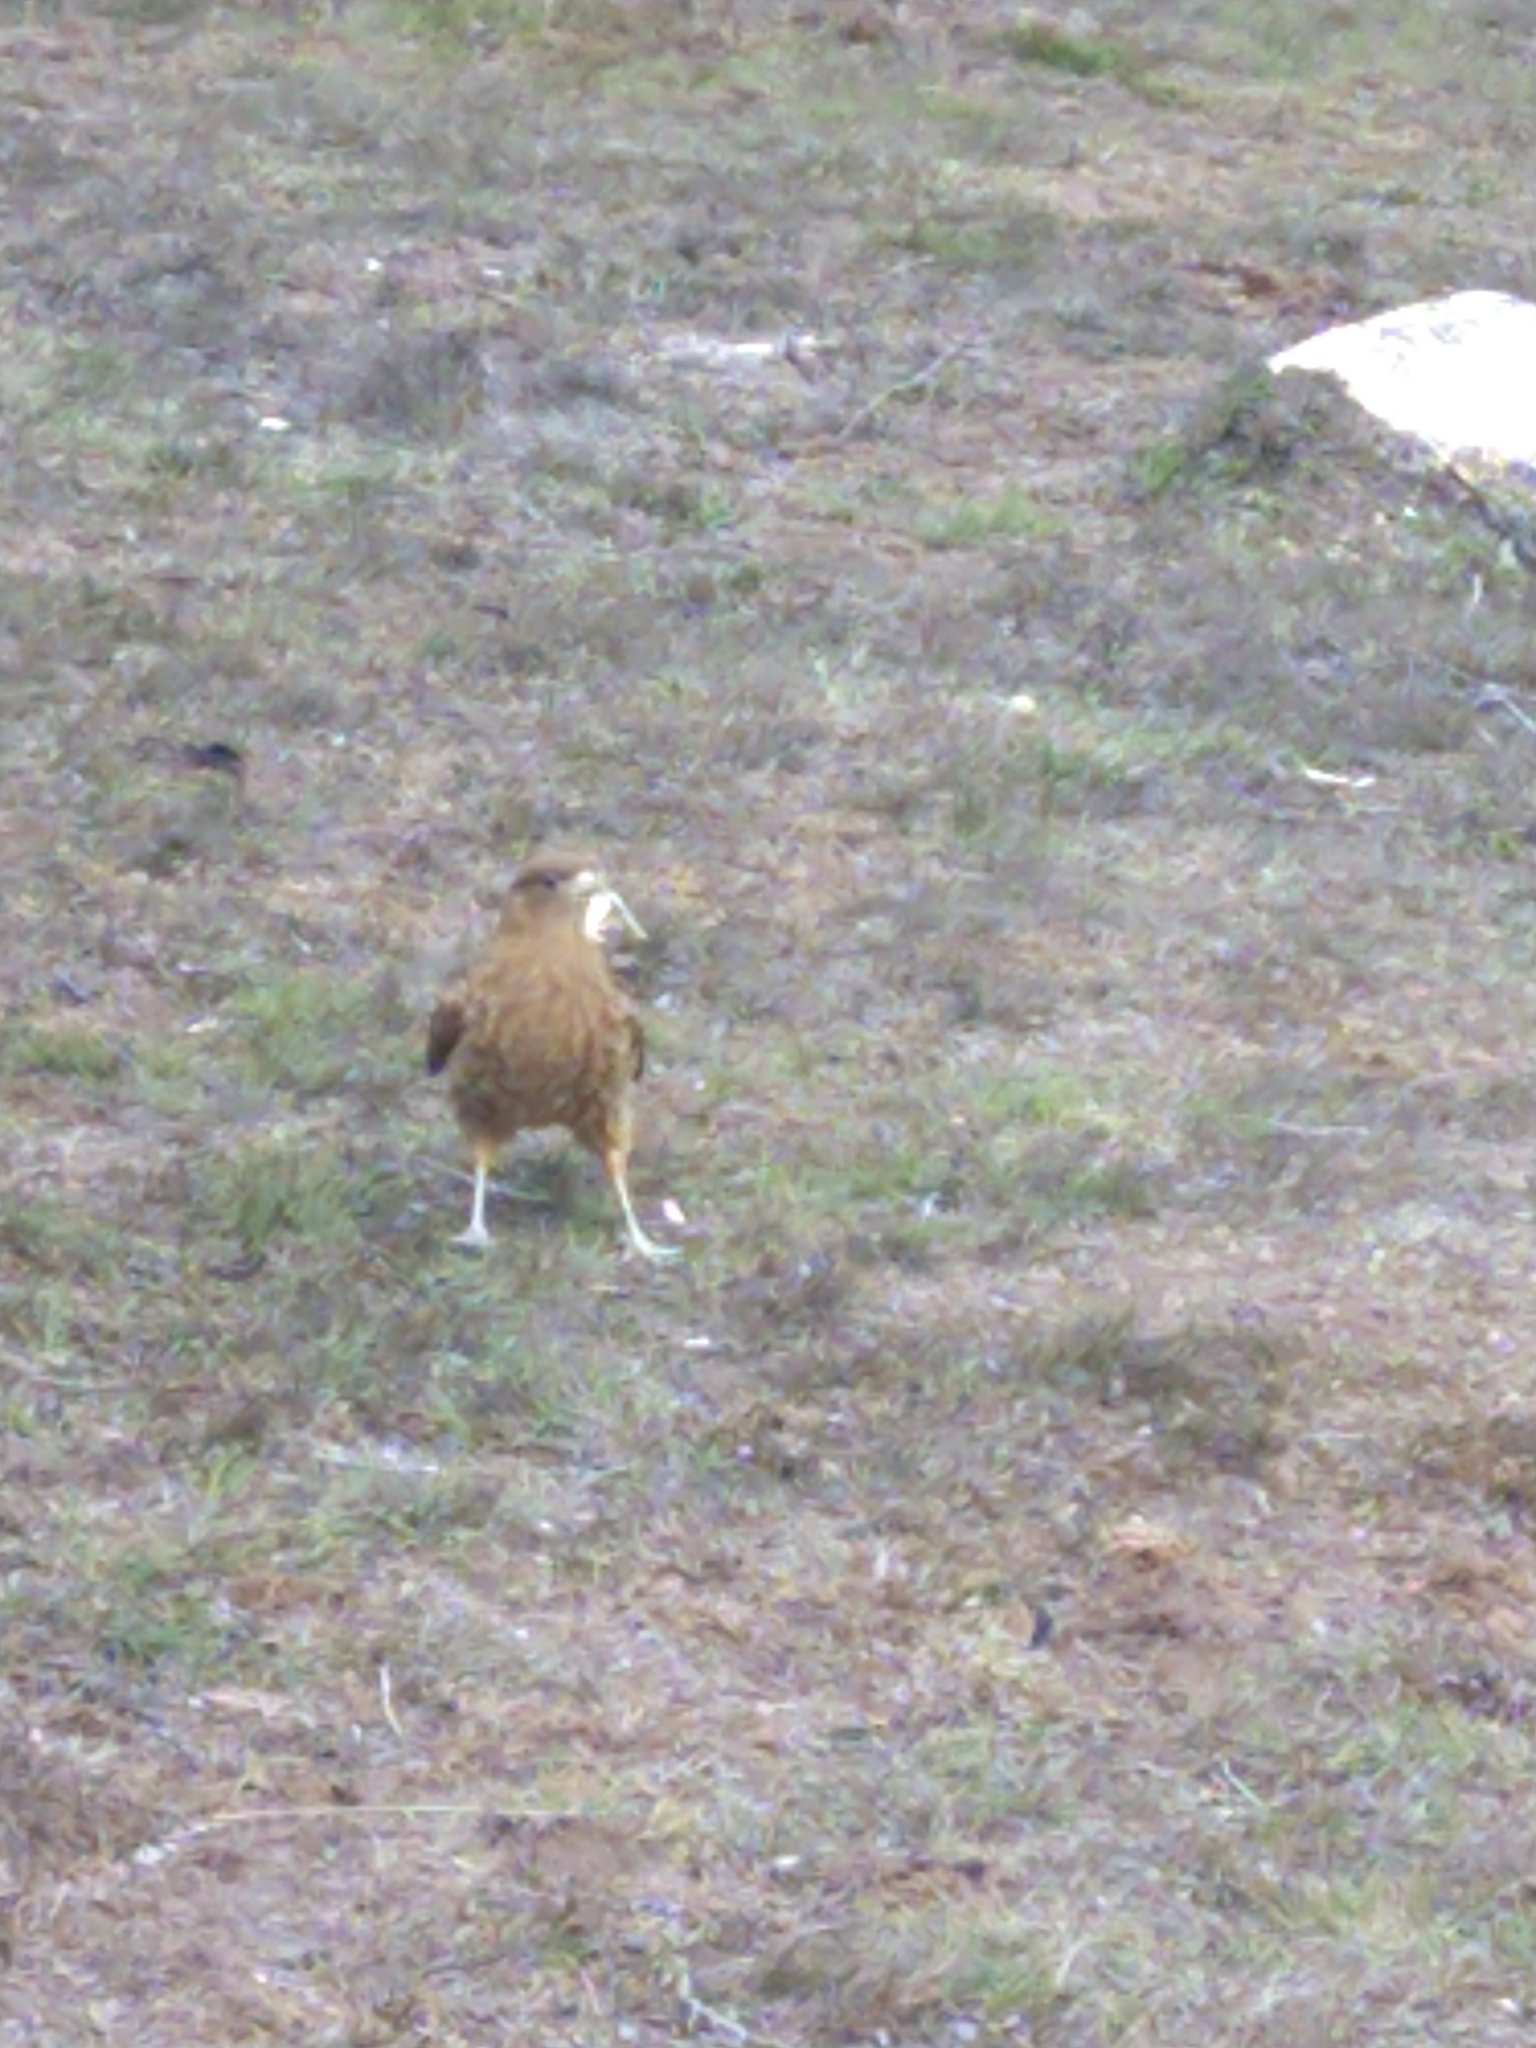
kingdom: Animalia
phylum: Chordata
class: Aves
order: Falconiformes
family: Falconidae
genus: Daptrius
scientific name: Daptrius
